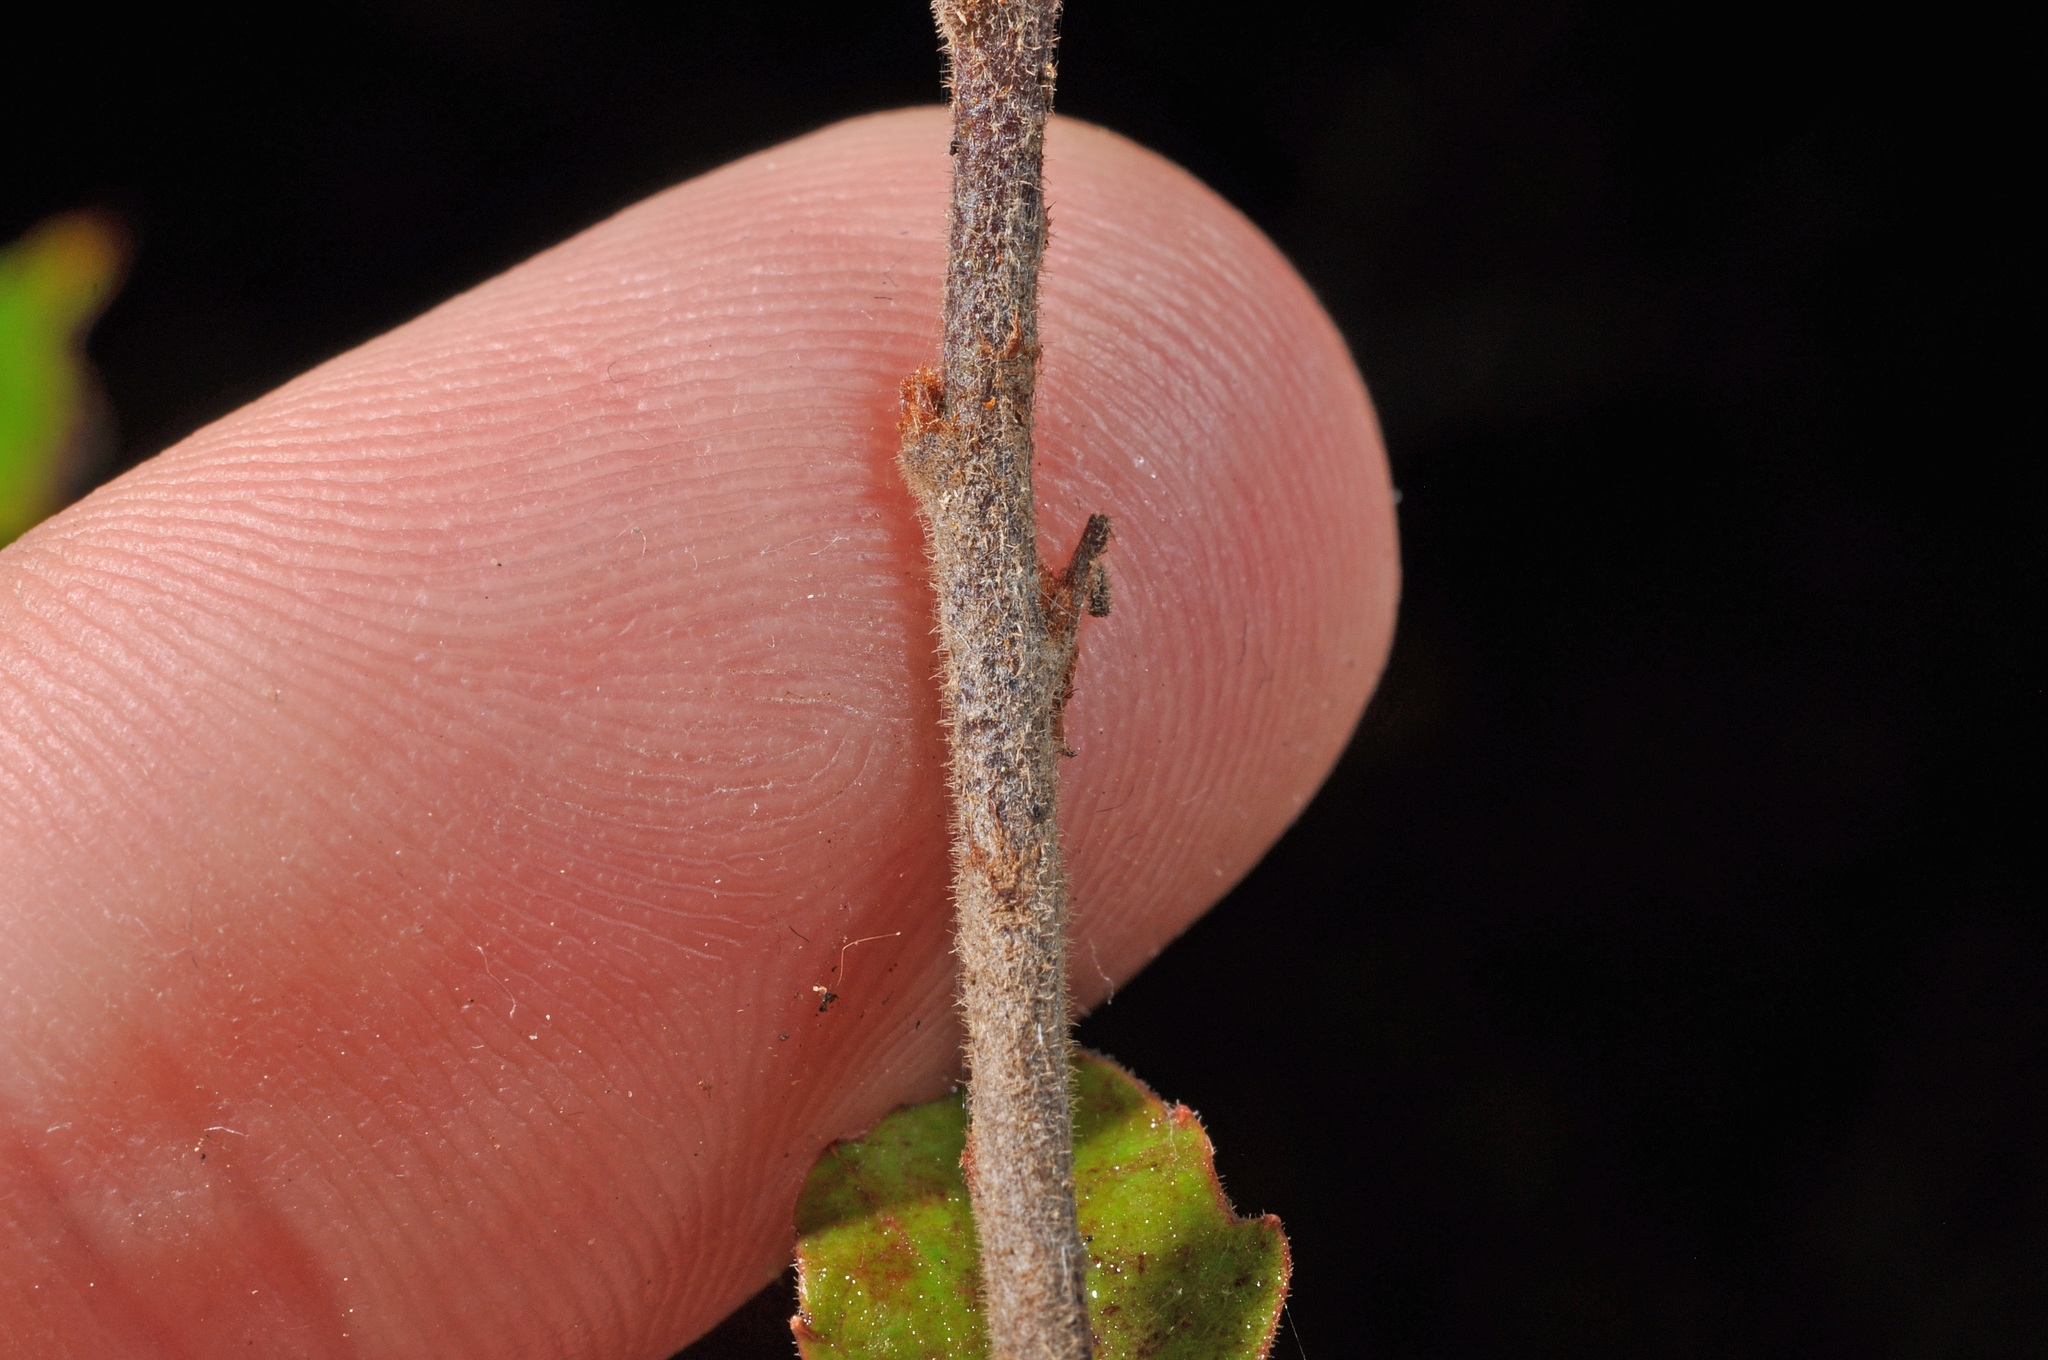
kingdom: Plantae
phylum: Tracheophyta
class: Magnoliopsida
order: Asterales
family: Alseuosmiaceae
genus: Alseuosmia
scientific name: Alseuosmia banksii
